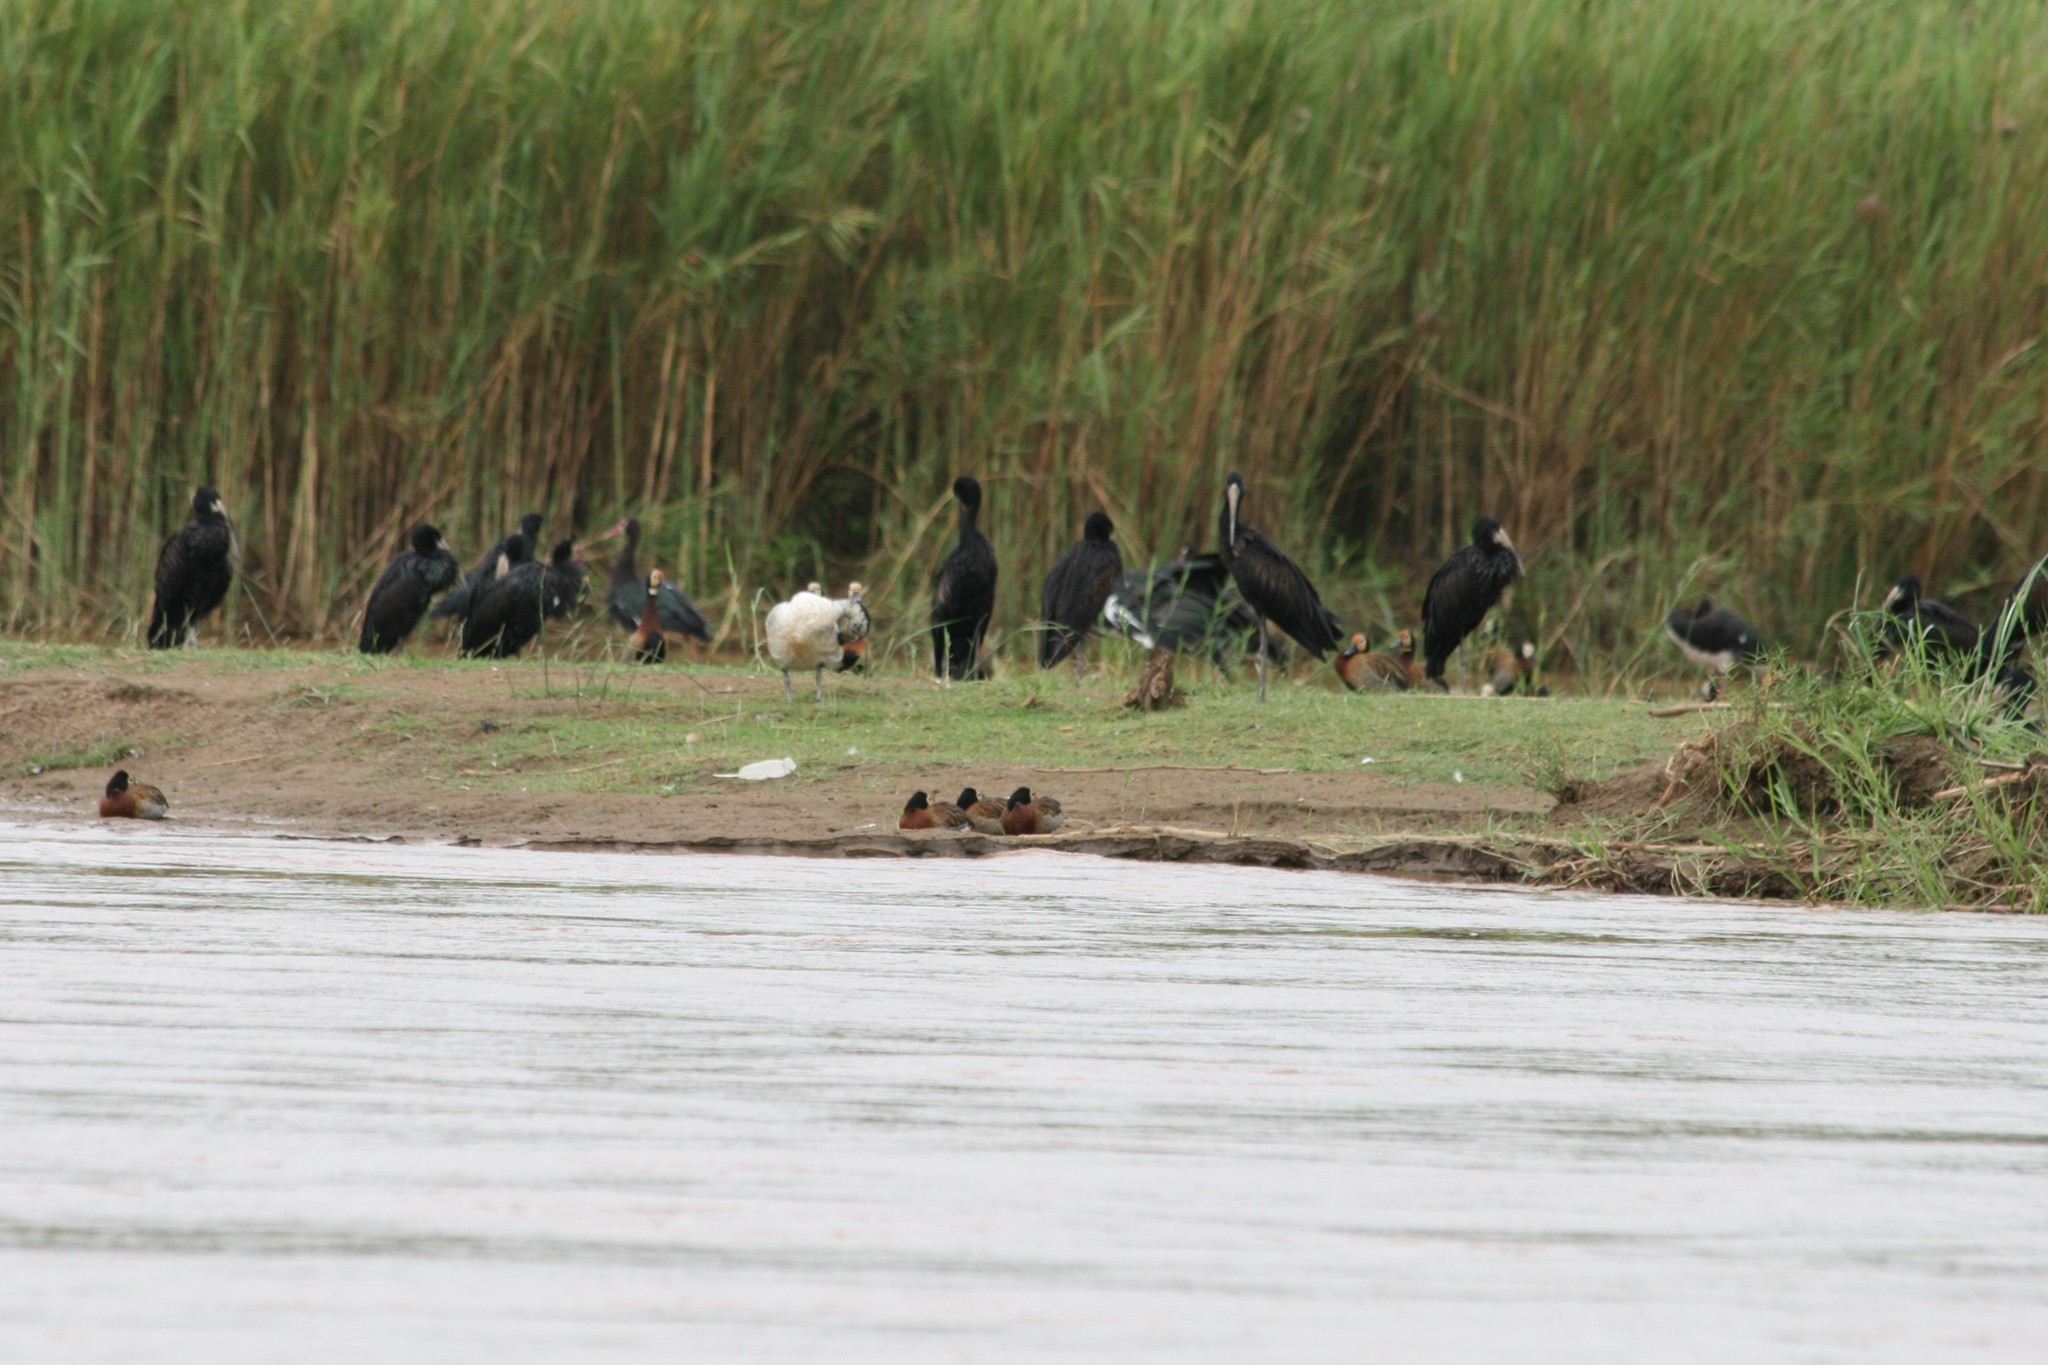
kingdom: Animalia
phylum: Chordata
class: Aves
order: Ciconiiformes
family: Ciconiidae
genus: Anastomus
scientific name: Anastomus lamelligerus
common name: African openbill
